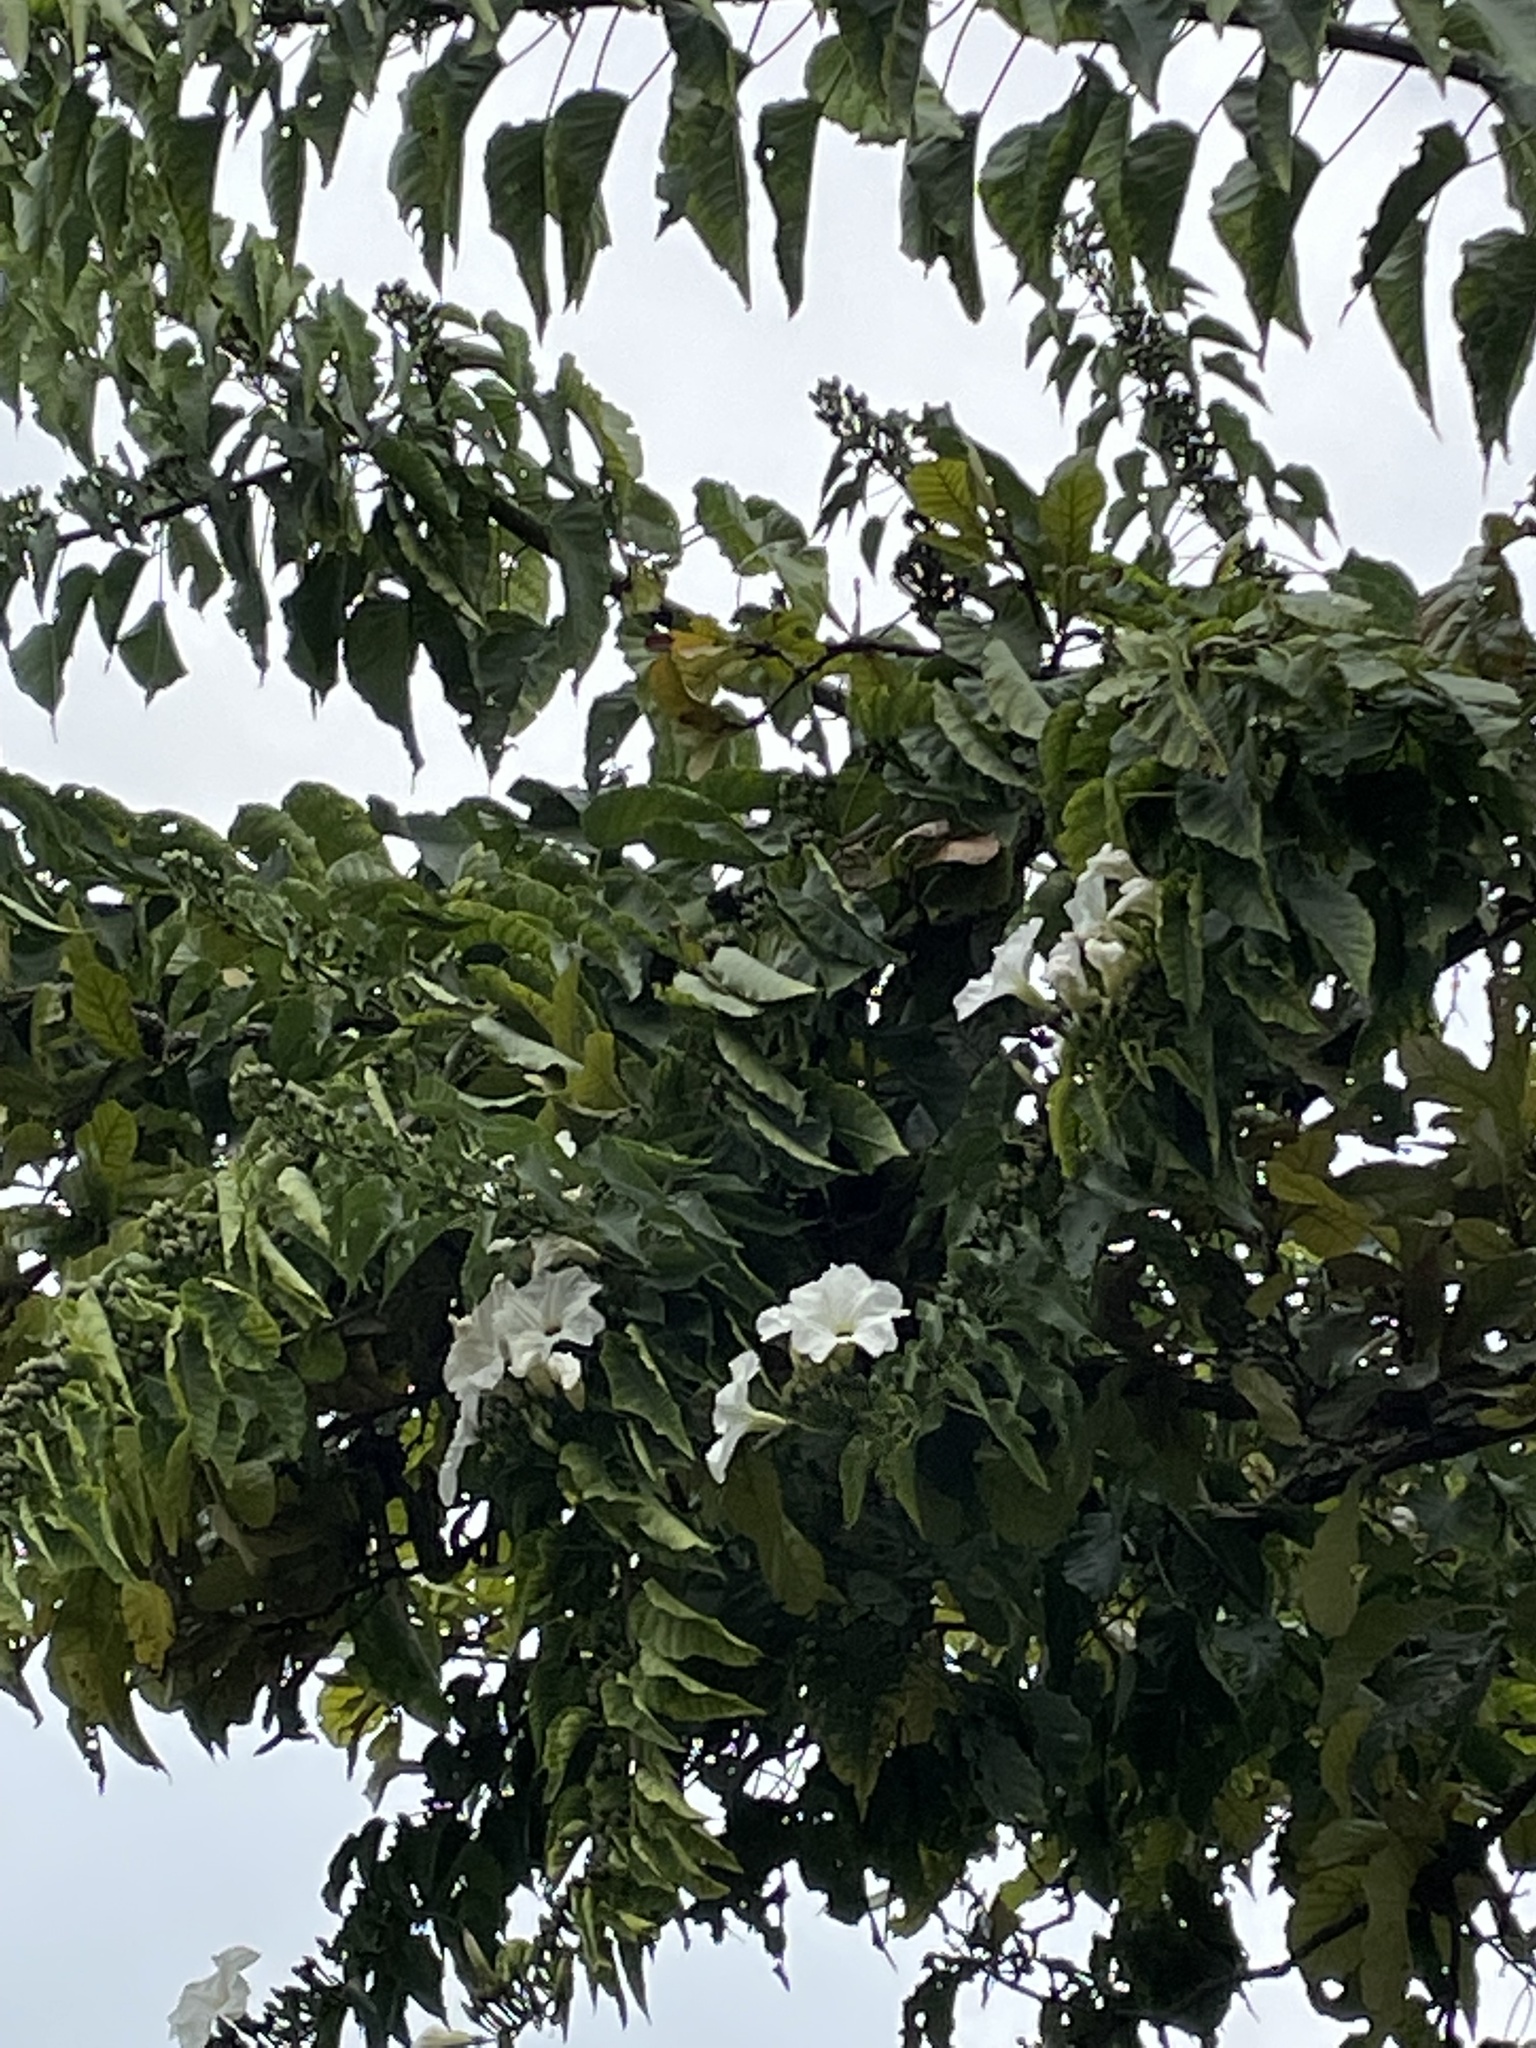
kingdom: Plantae
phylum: Tracheophyta
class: Magnoliopsida
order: Solanales
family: Convolvulaceae
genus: Ipomoea
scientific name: Ipomoea pauciflora
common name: Tree morningglory
